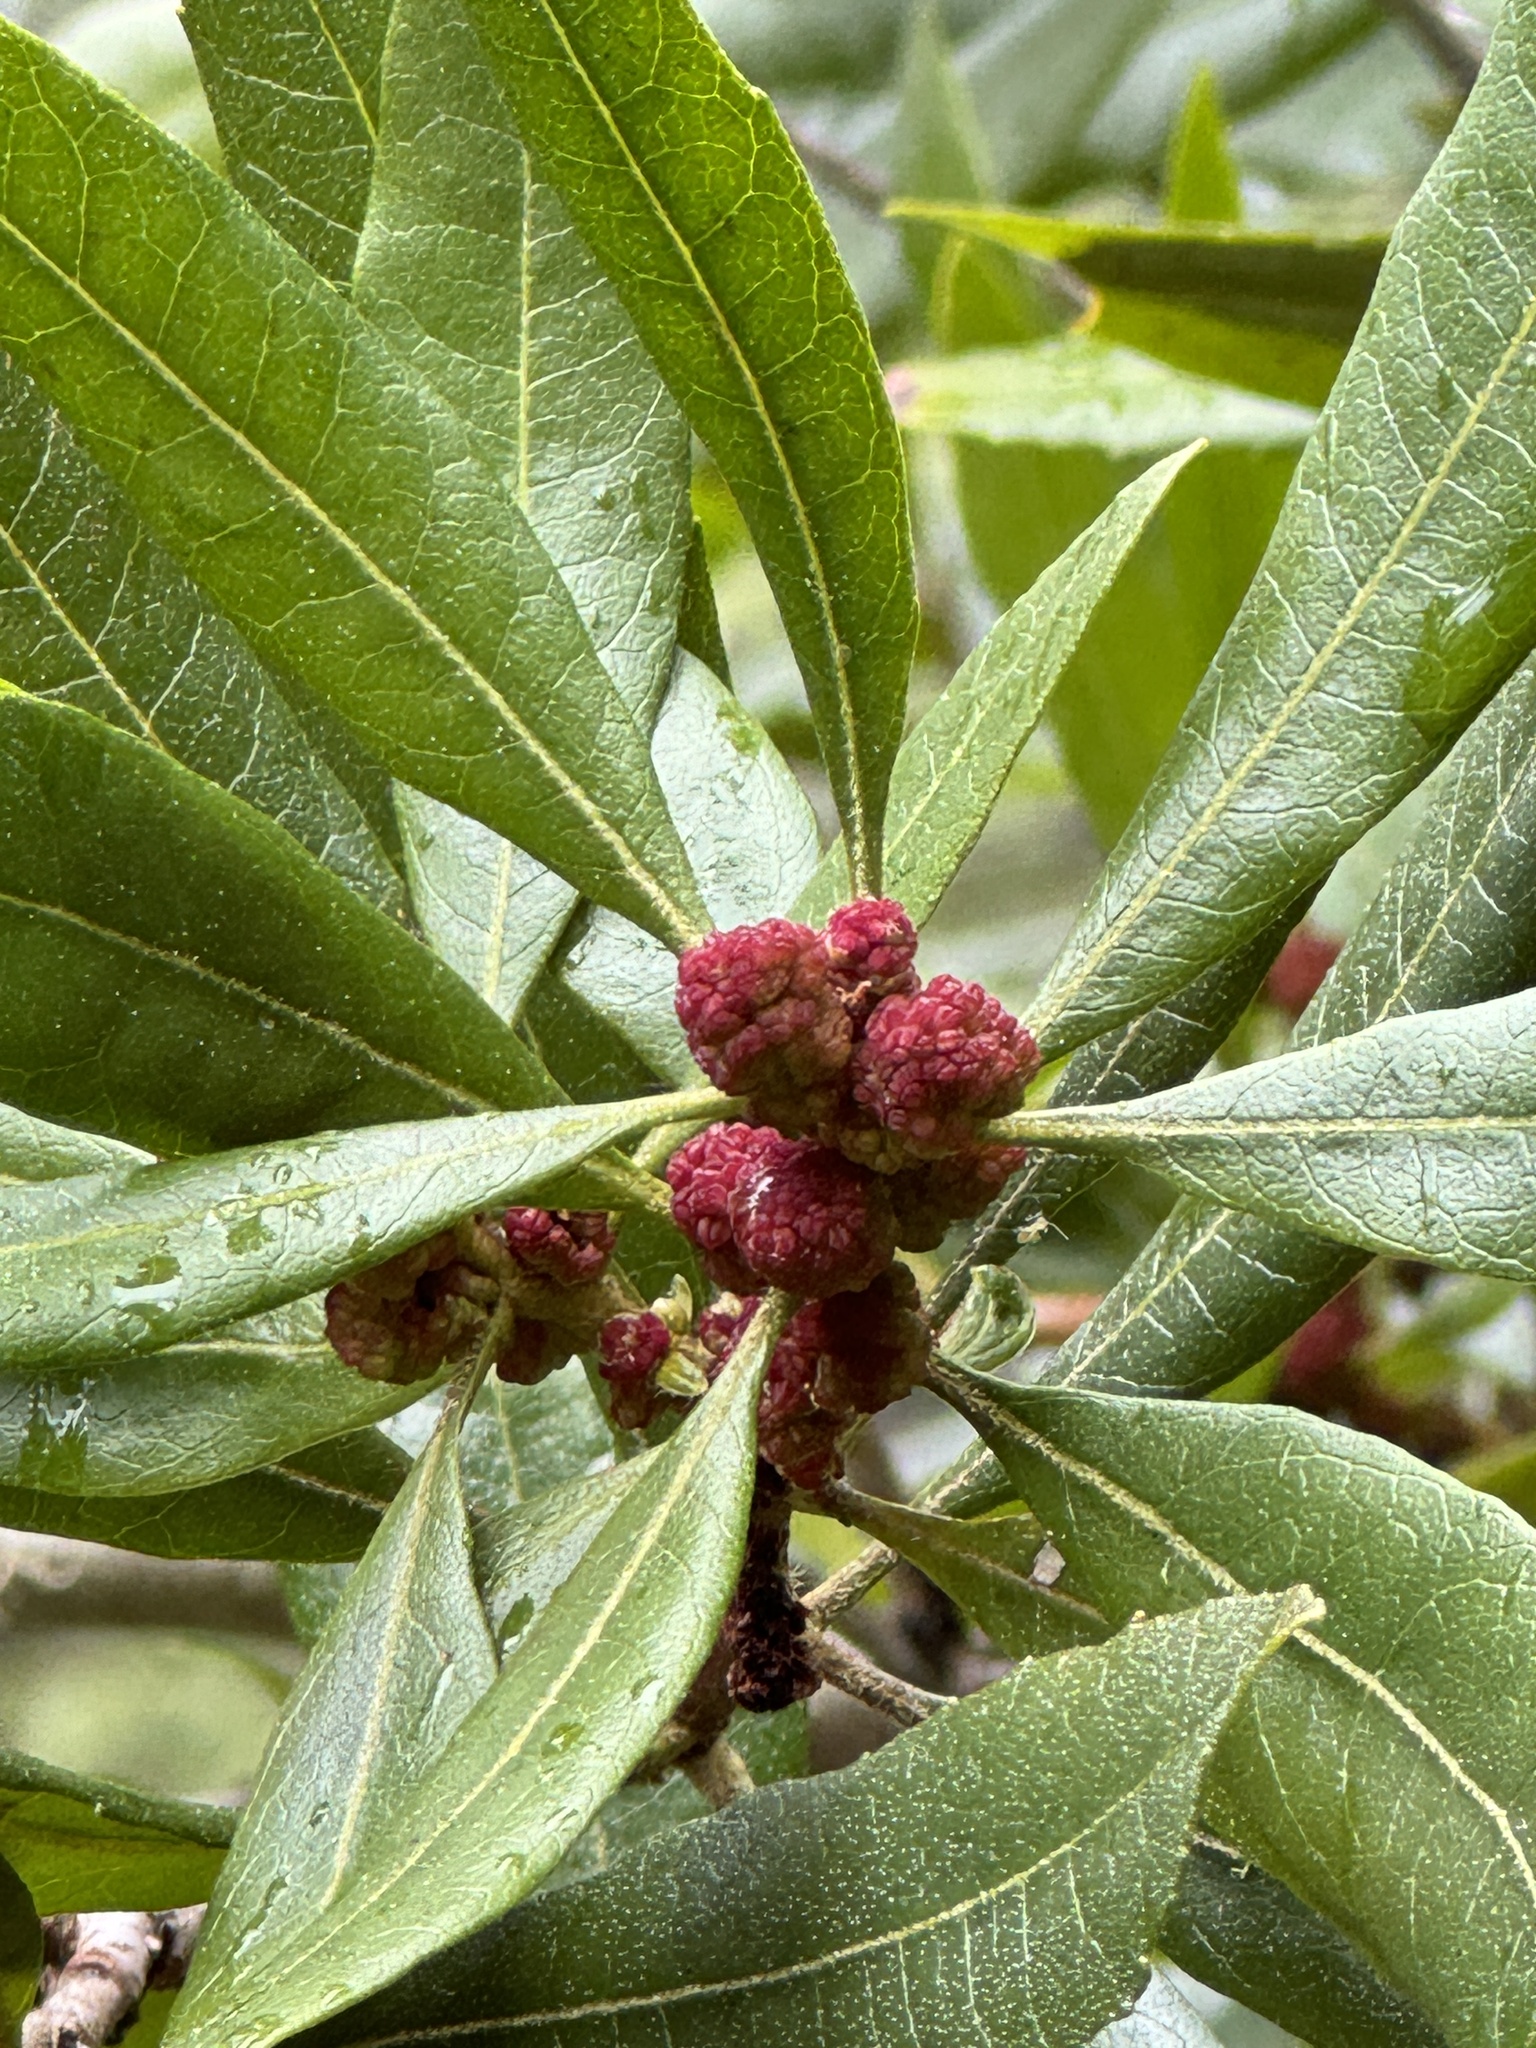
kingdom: Plantae
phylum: Tracheophyta
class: Magnoliopsida
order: Fagales
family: Myricaceae
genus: Morella
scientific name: Morella californica
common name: California wax-myrtle
